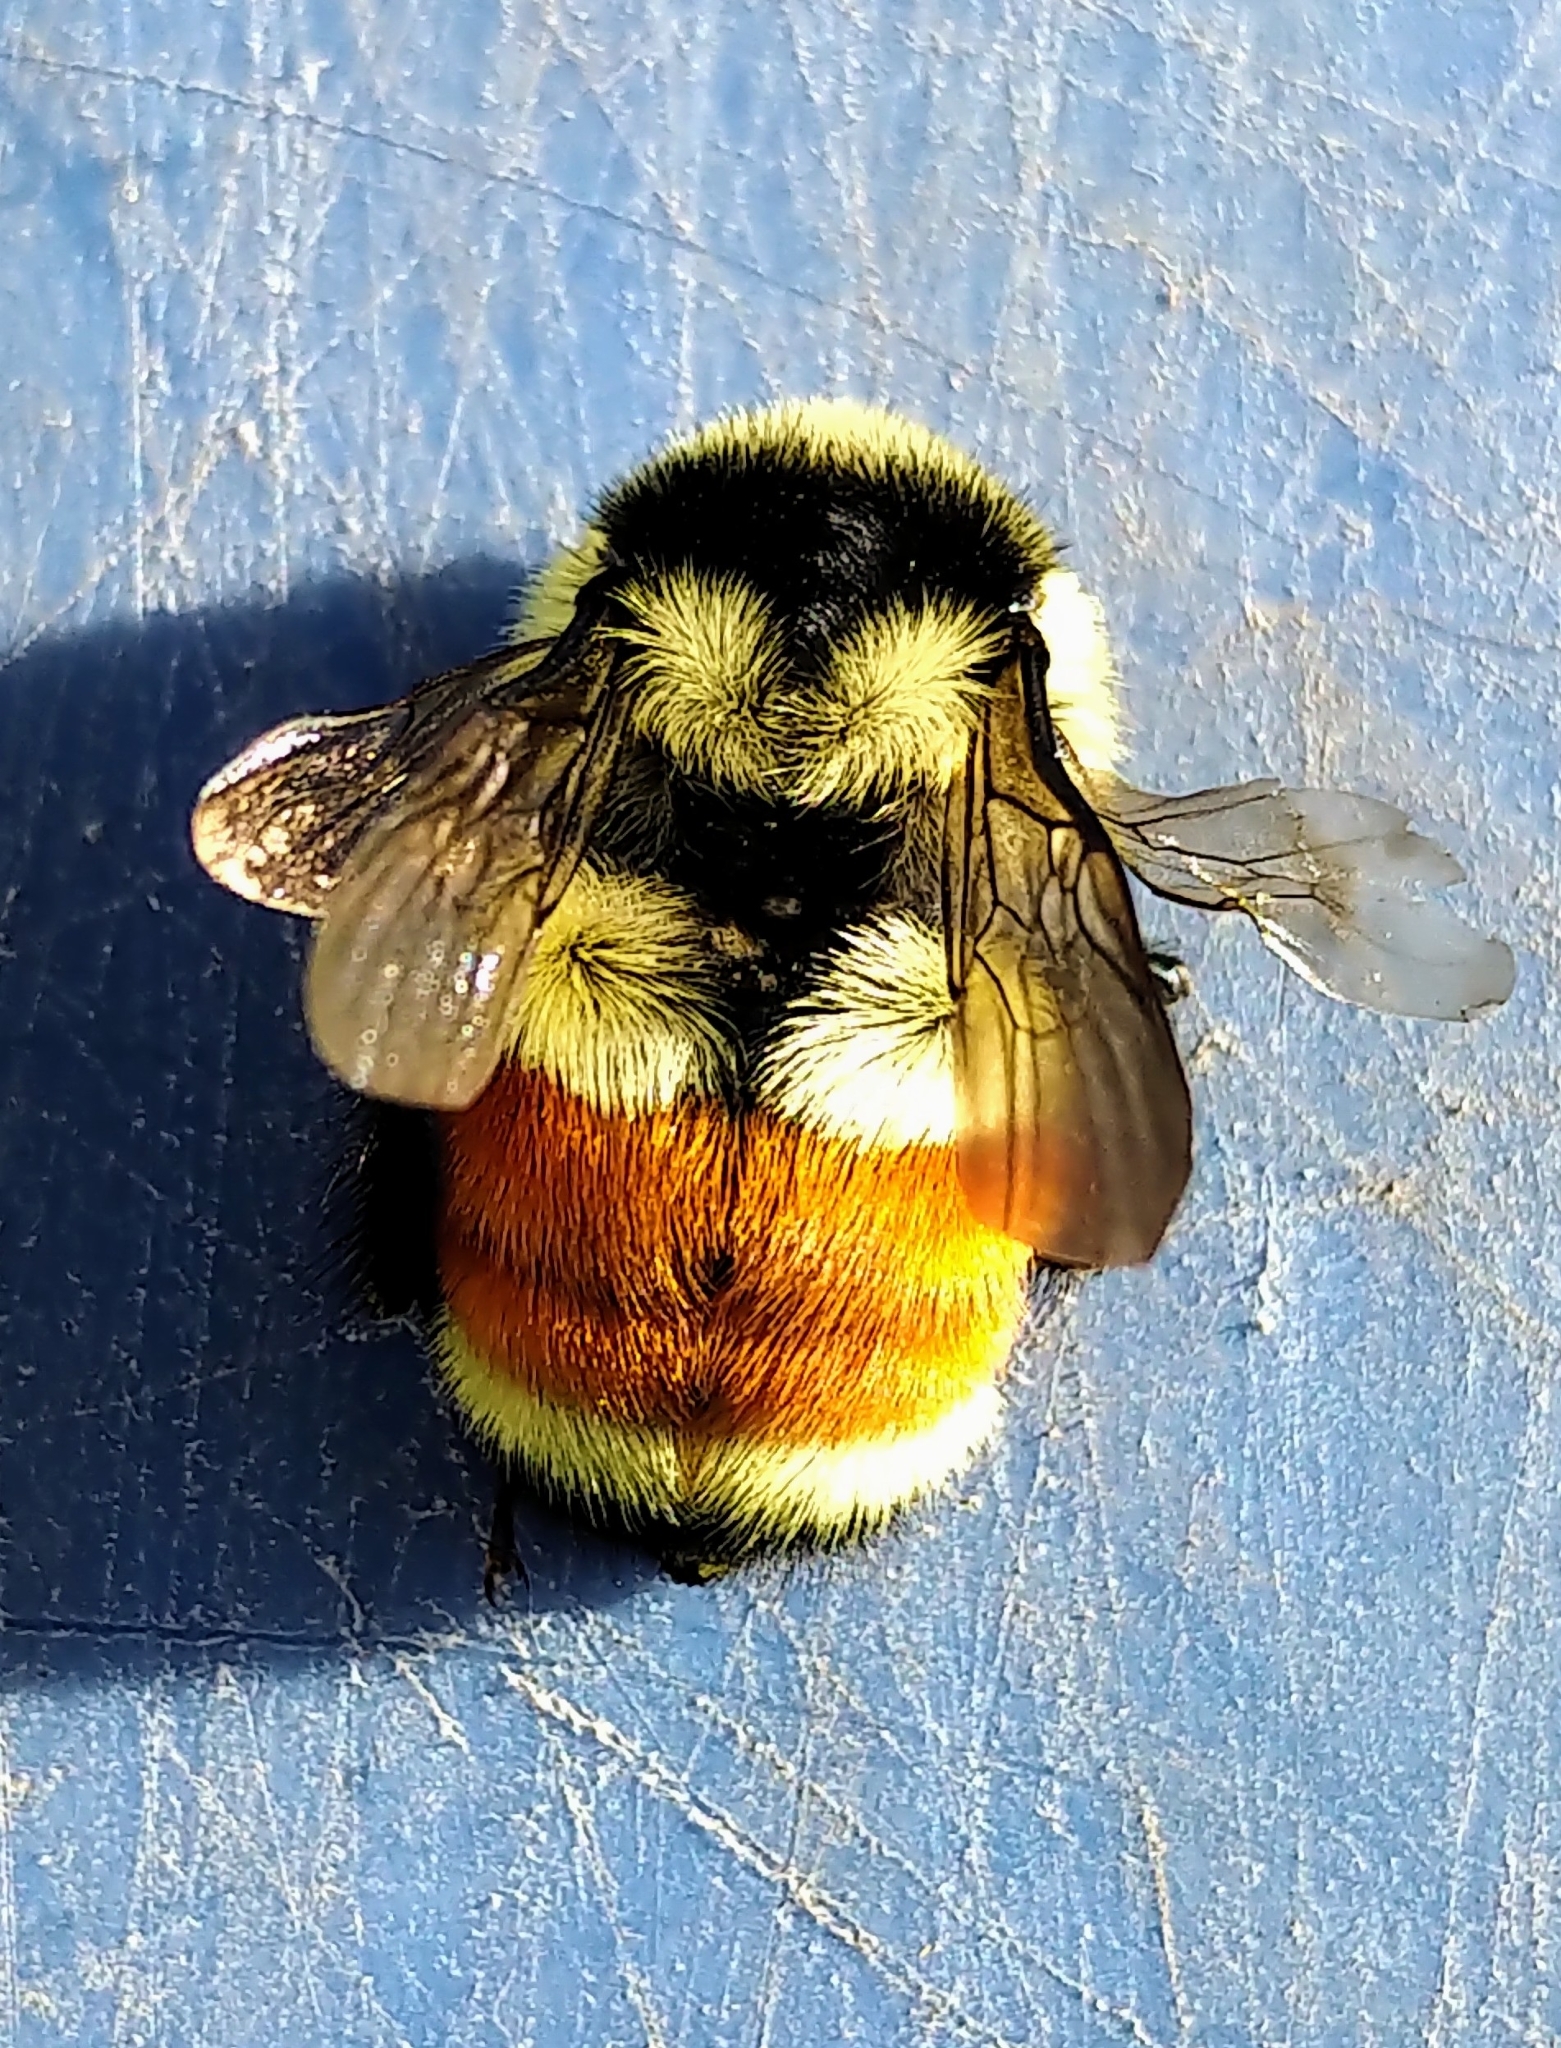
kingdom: Animalia
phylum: Arthropoda
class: Insecta
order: Hymenoptera
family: Apidae
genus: Bombus
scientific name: Bombus ternarius
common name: Tri-colored bumble bee
